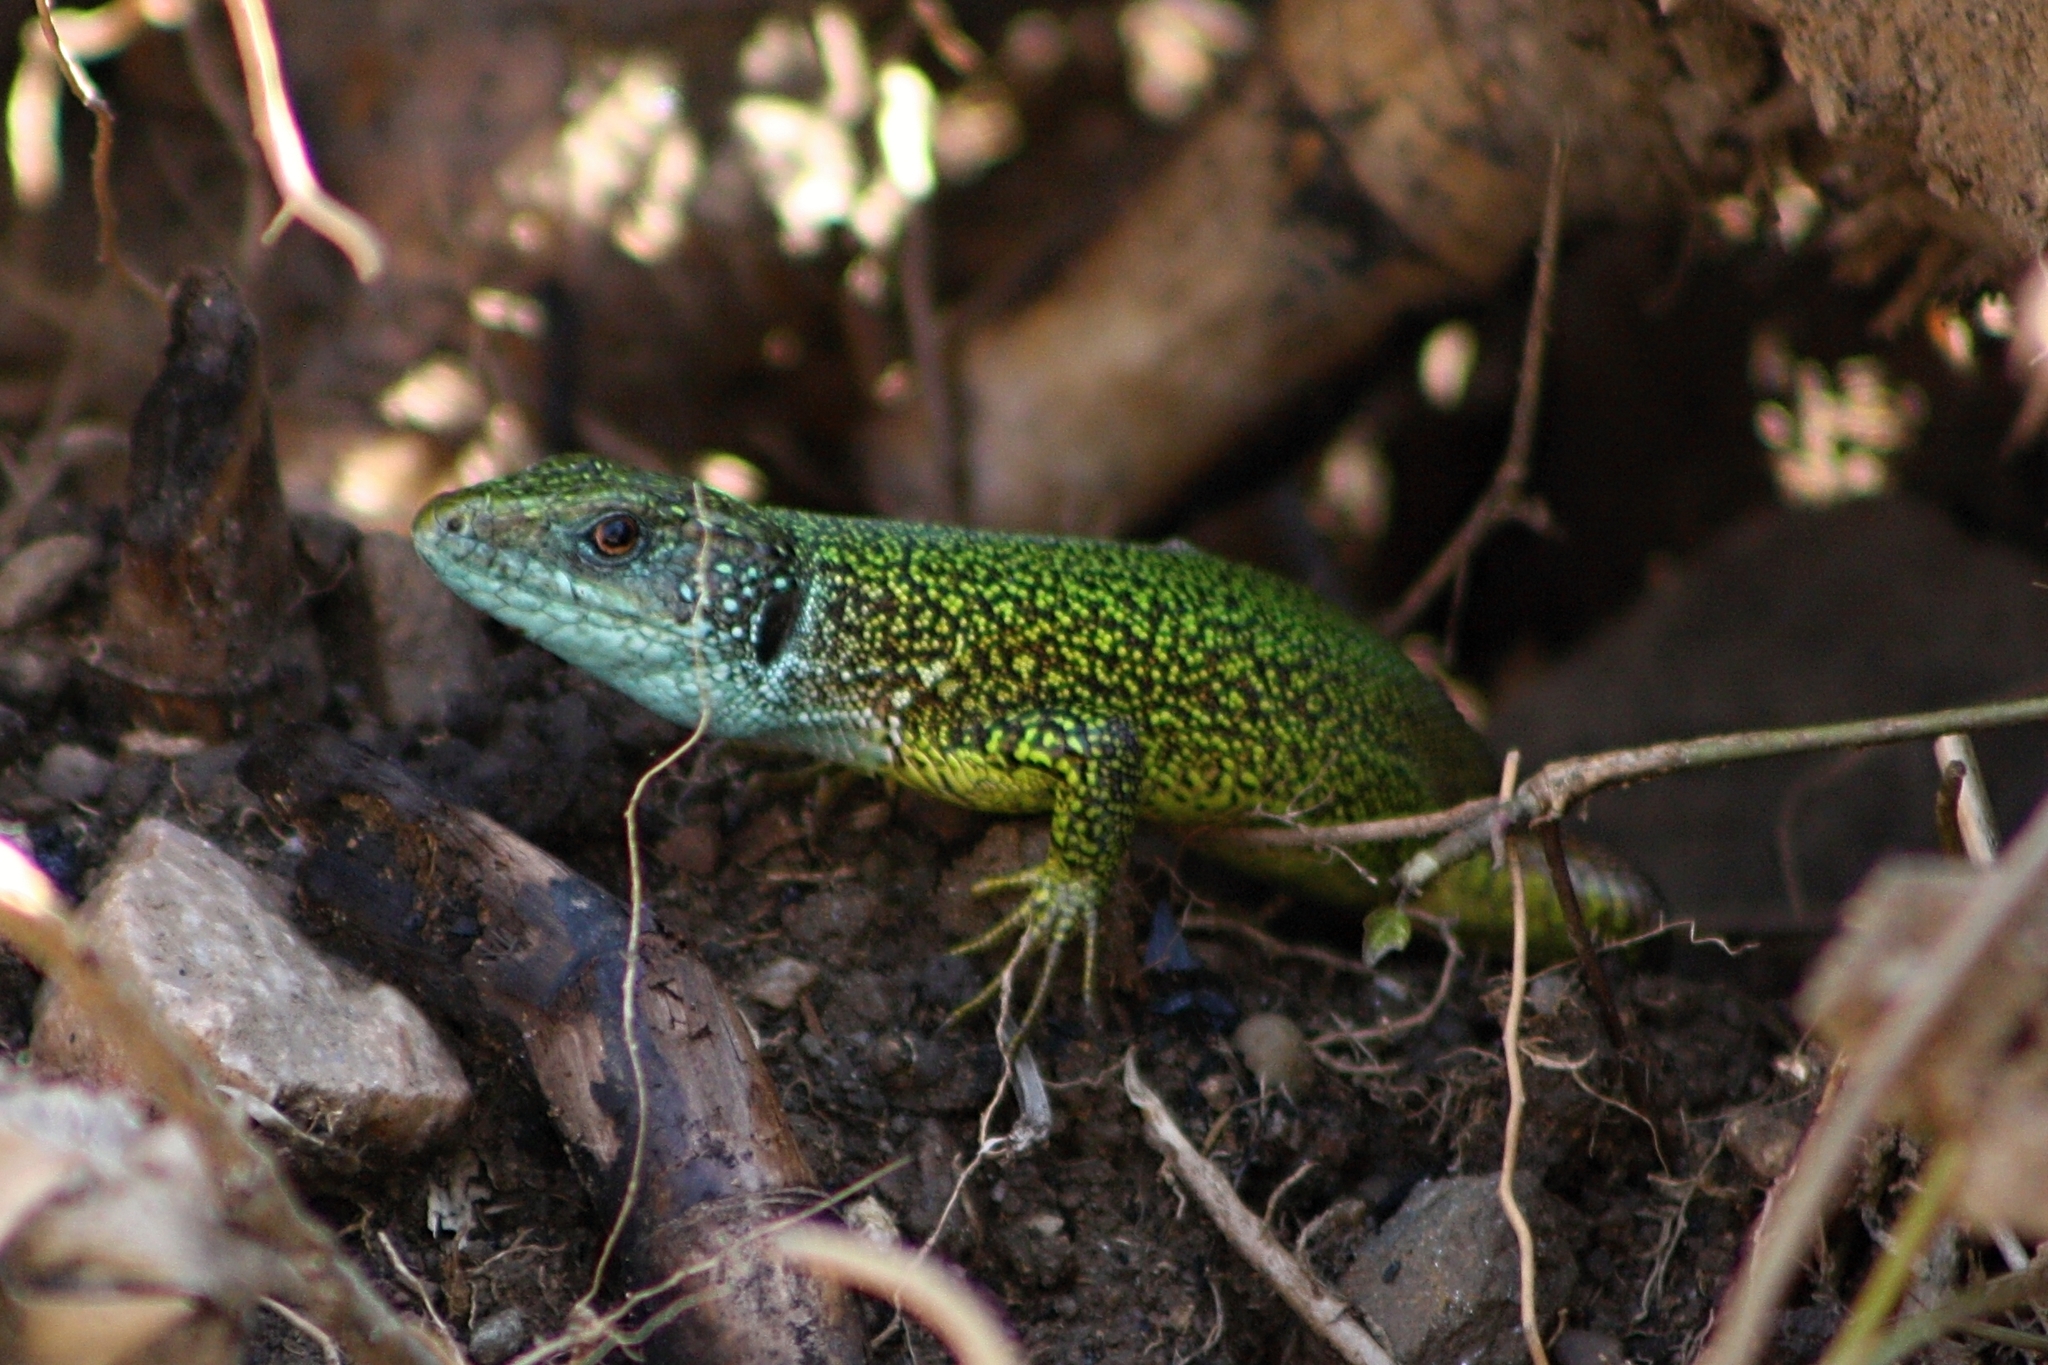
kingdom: Animalia
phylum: Chordata
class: Squamata
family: Lacertidae
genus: Lacerta
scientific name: Lacerta viridis
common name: European green lizard
